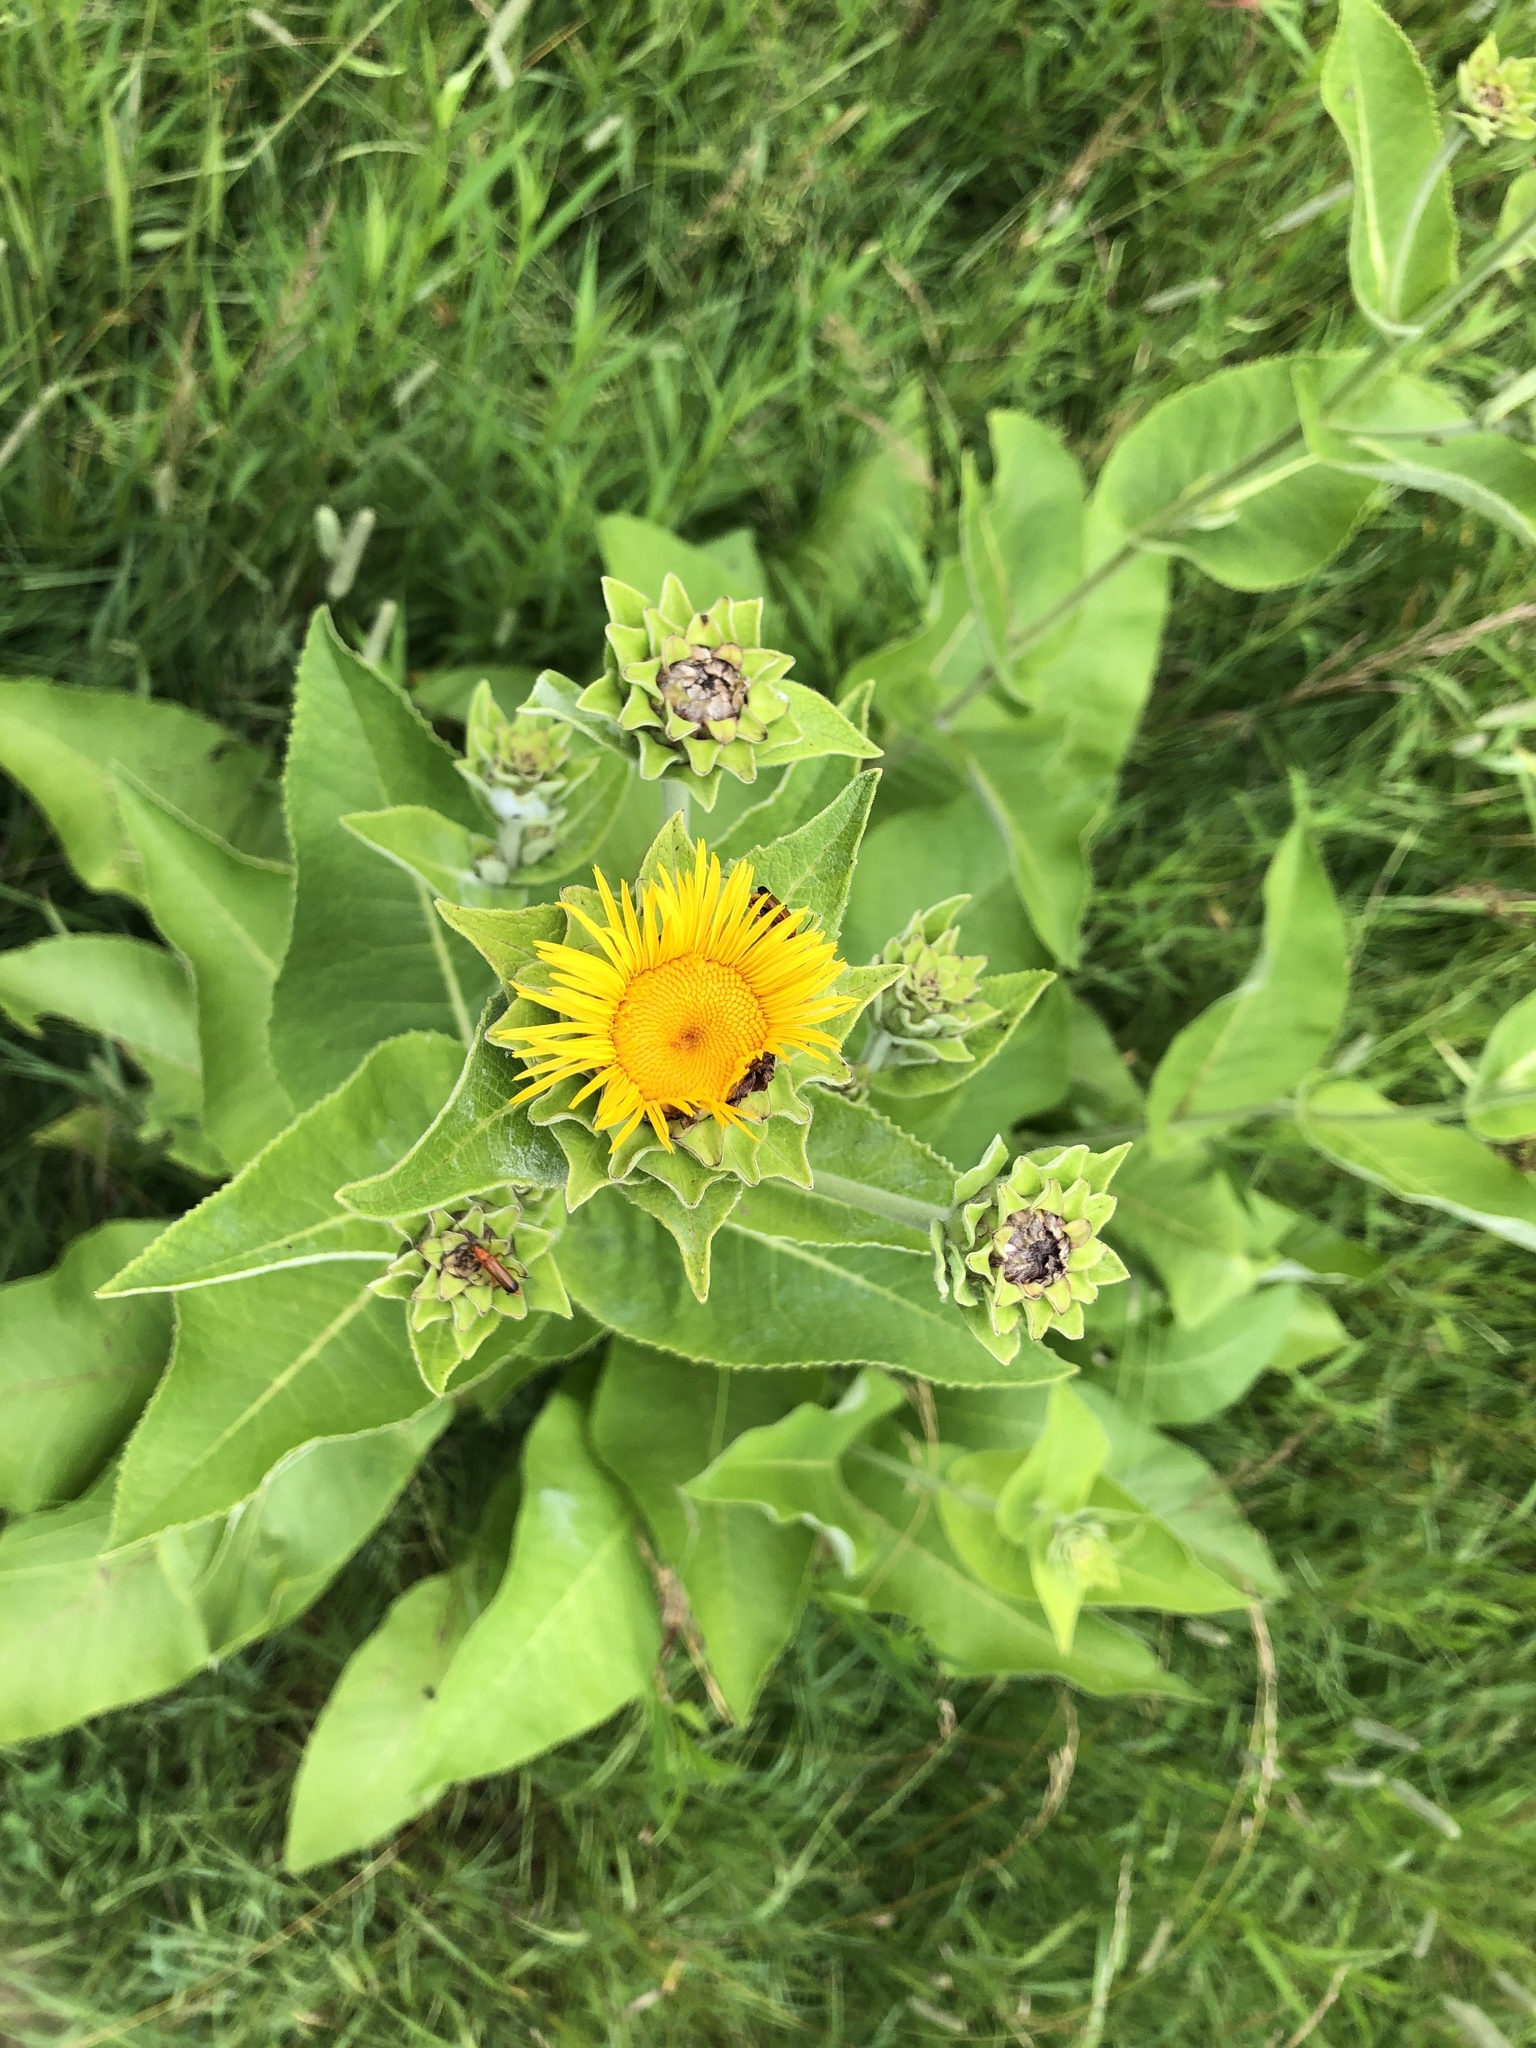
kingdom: Plantae
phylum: Tracheophyta
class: Magnoliopsida
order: Asterales
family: Asteraceae
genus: Inula
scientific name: Inula helenium
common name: Elecampane
